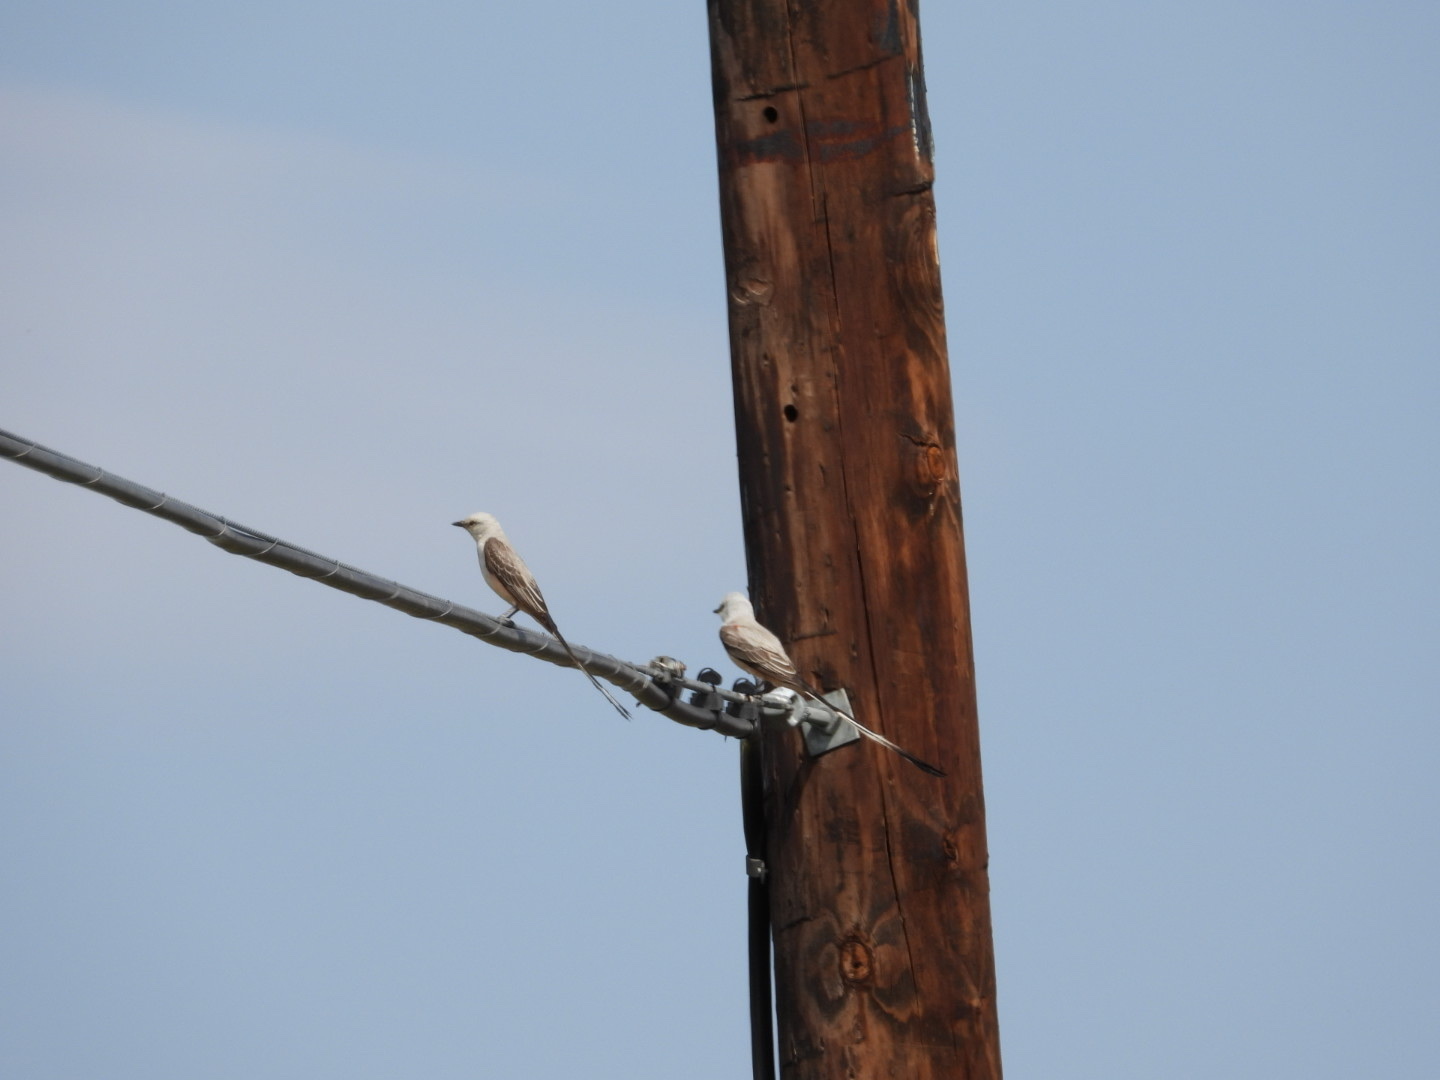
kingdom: Animalia
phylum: Chordata
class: Aves
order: Passeriformes
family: Tyrannidae
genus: Tyrannus
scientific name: Tyrannus forficatus
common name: Scissor-tailed flycatcher
